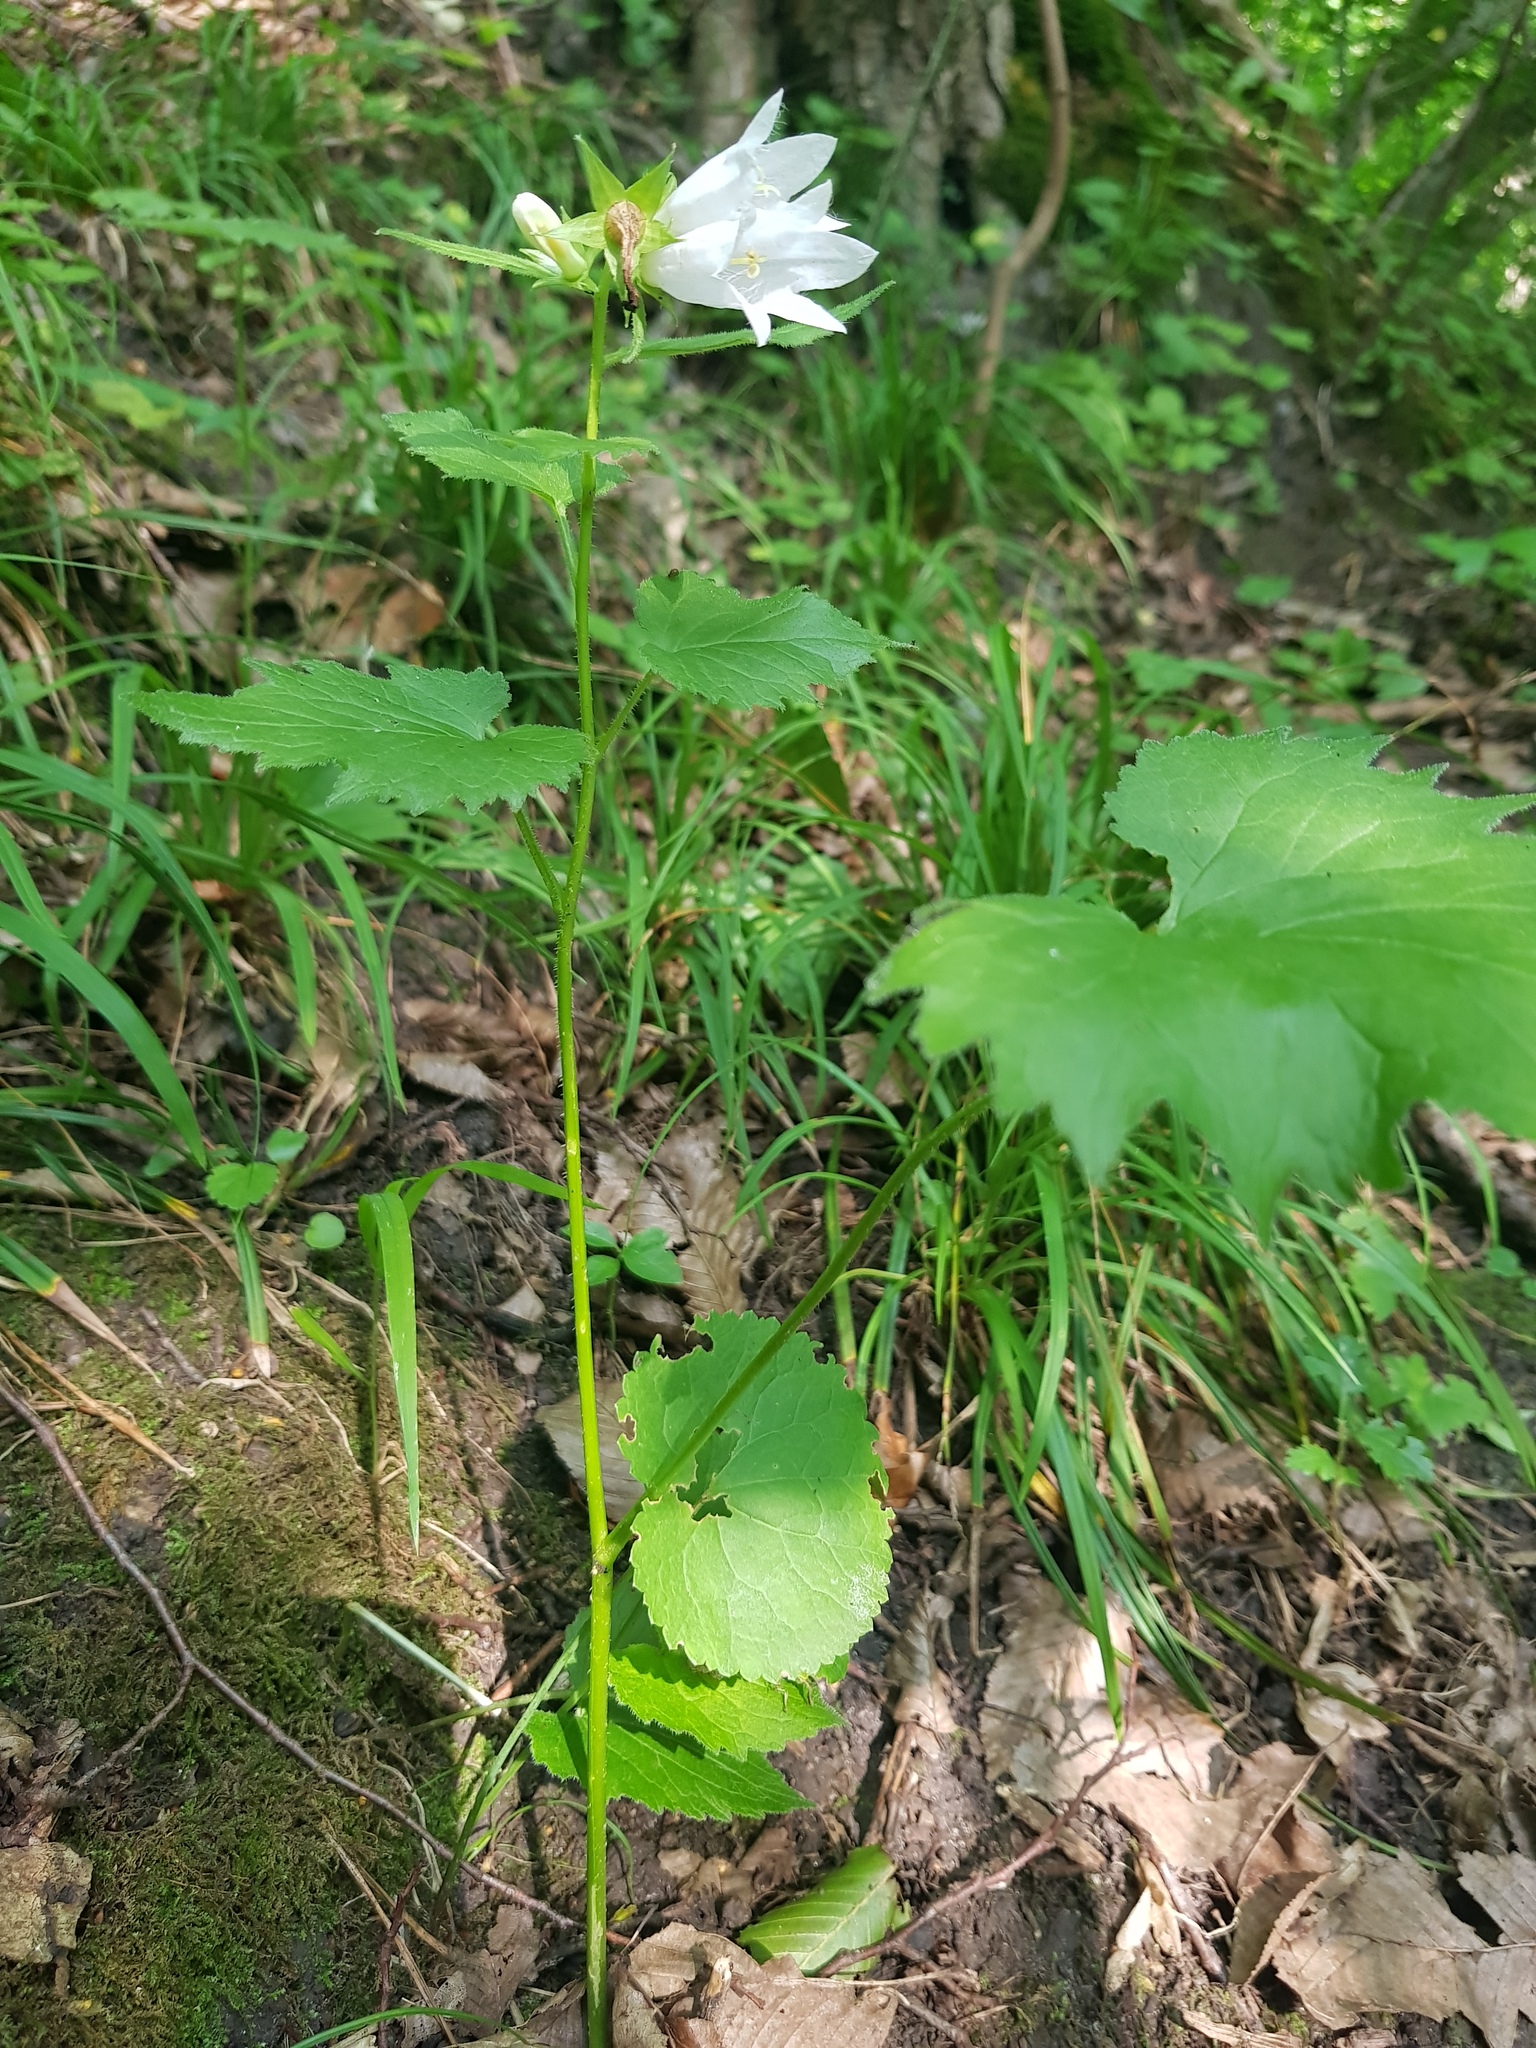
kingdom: Plantae
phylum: Tracheophyta
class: Magnoliopsida
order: Asterales
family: Campanulaceae
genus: Campanula
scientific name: Campanula trachelium
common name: Nettle-leaved bellflower
